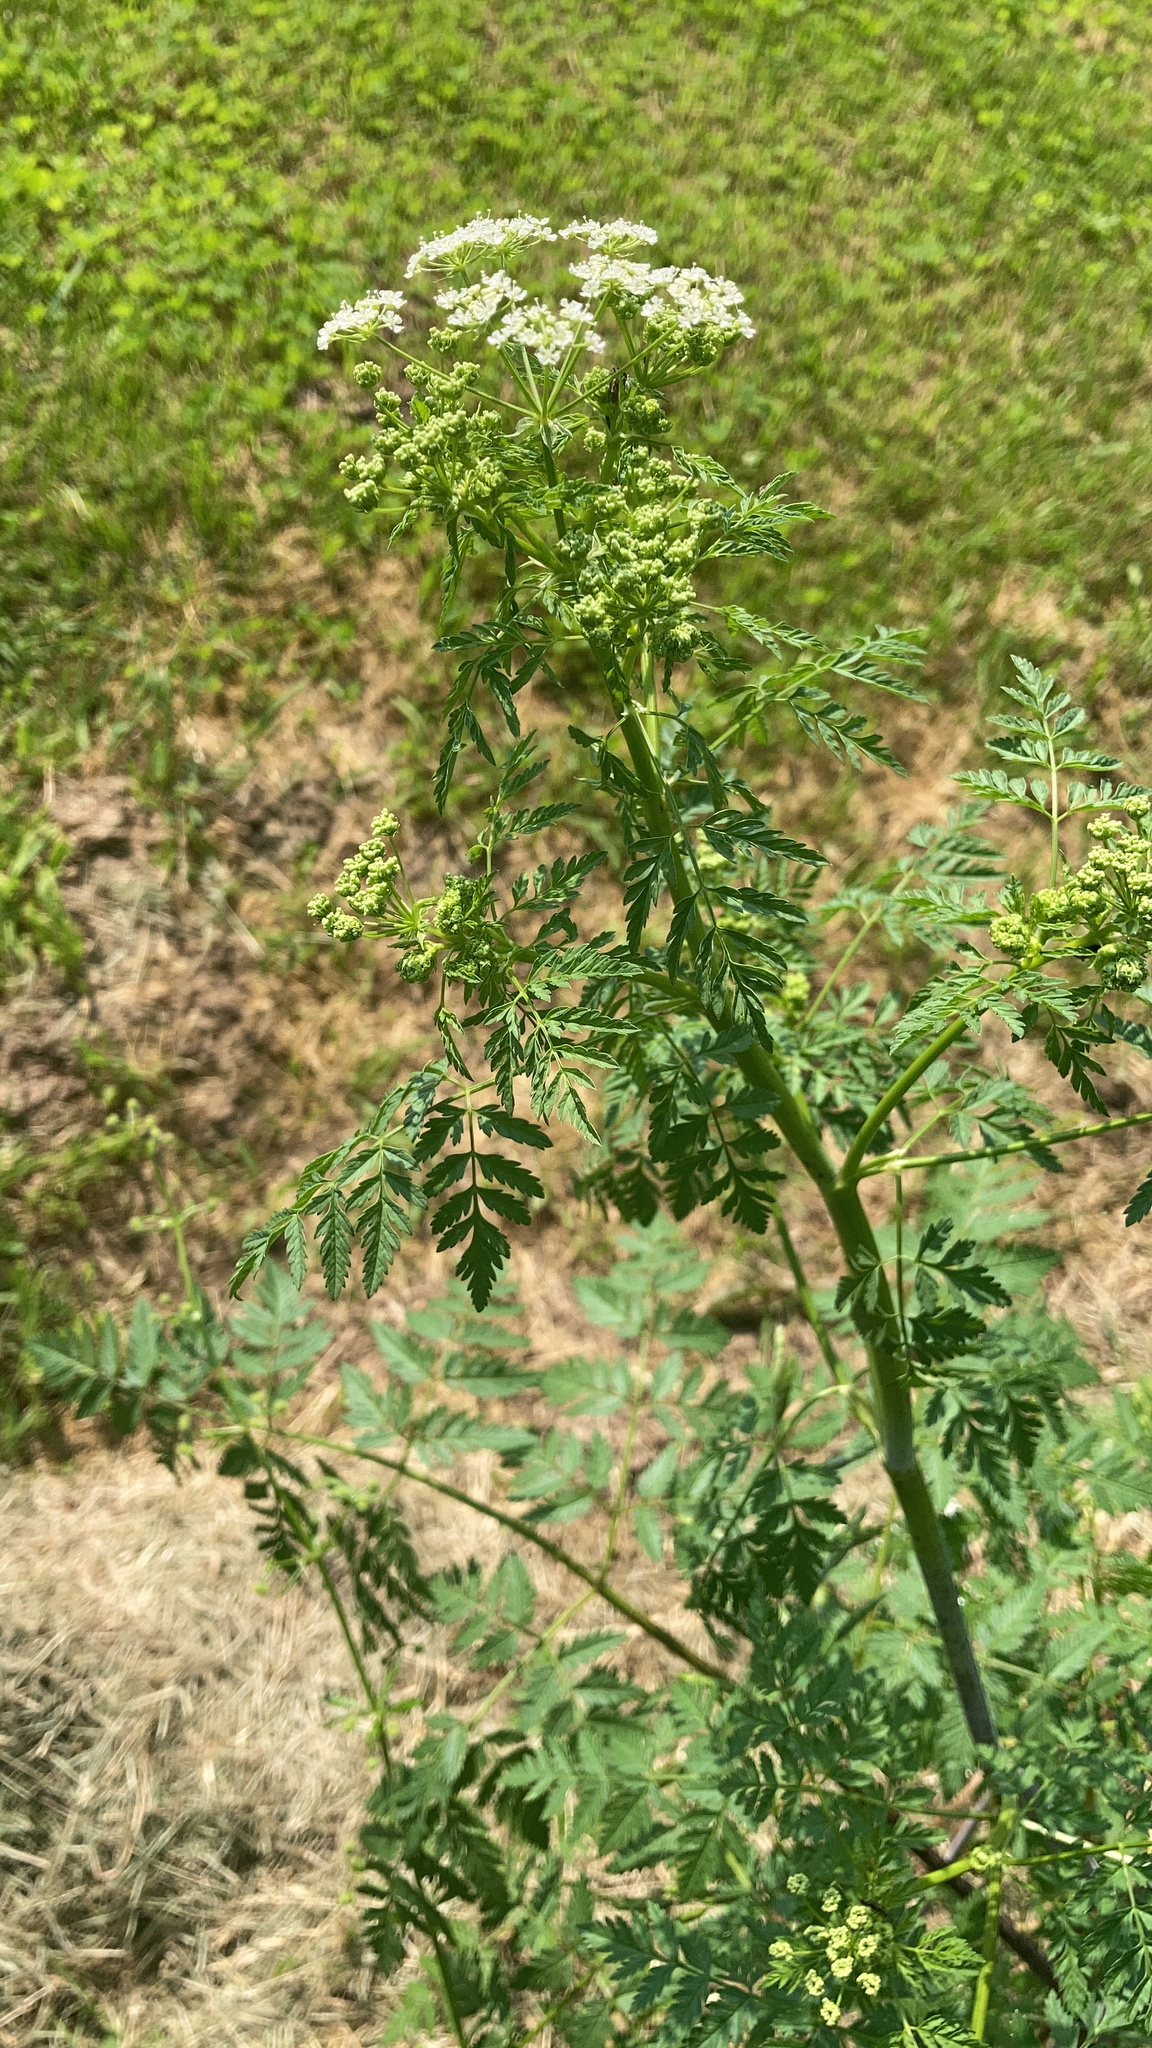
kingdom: Plantae
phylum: Tracheophyta
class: Magnoliopsida
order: Apiales
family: Apiaceae
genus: Conium
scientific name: Conium maculatum
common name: Hemlock
